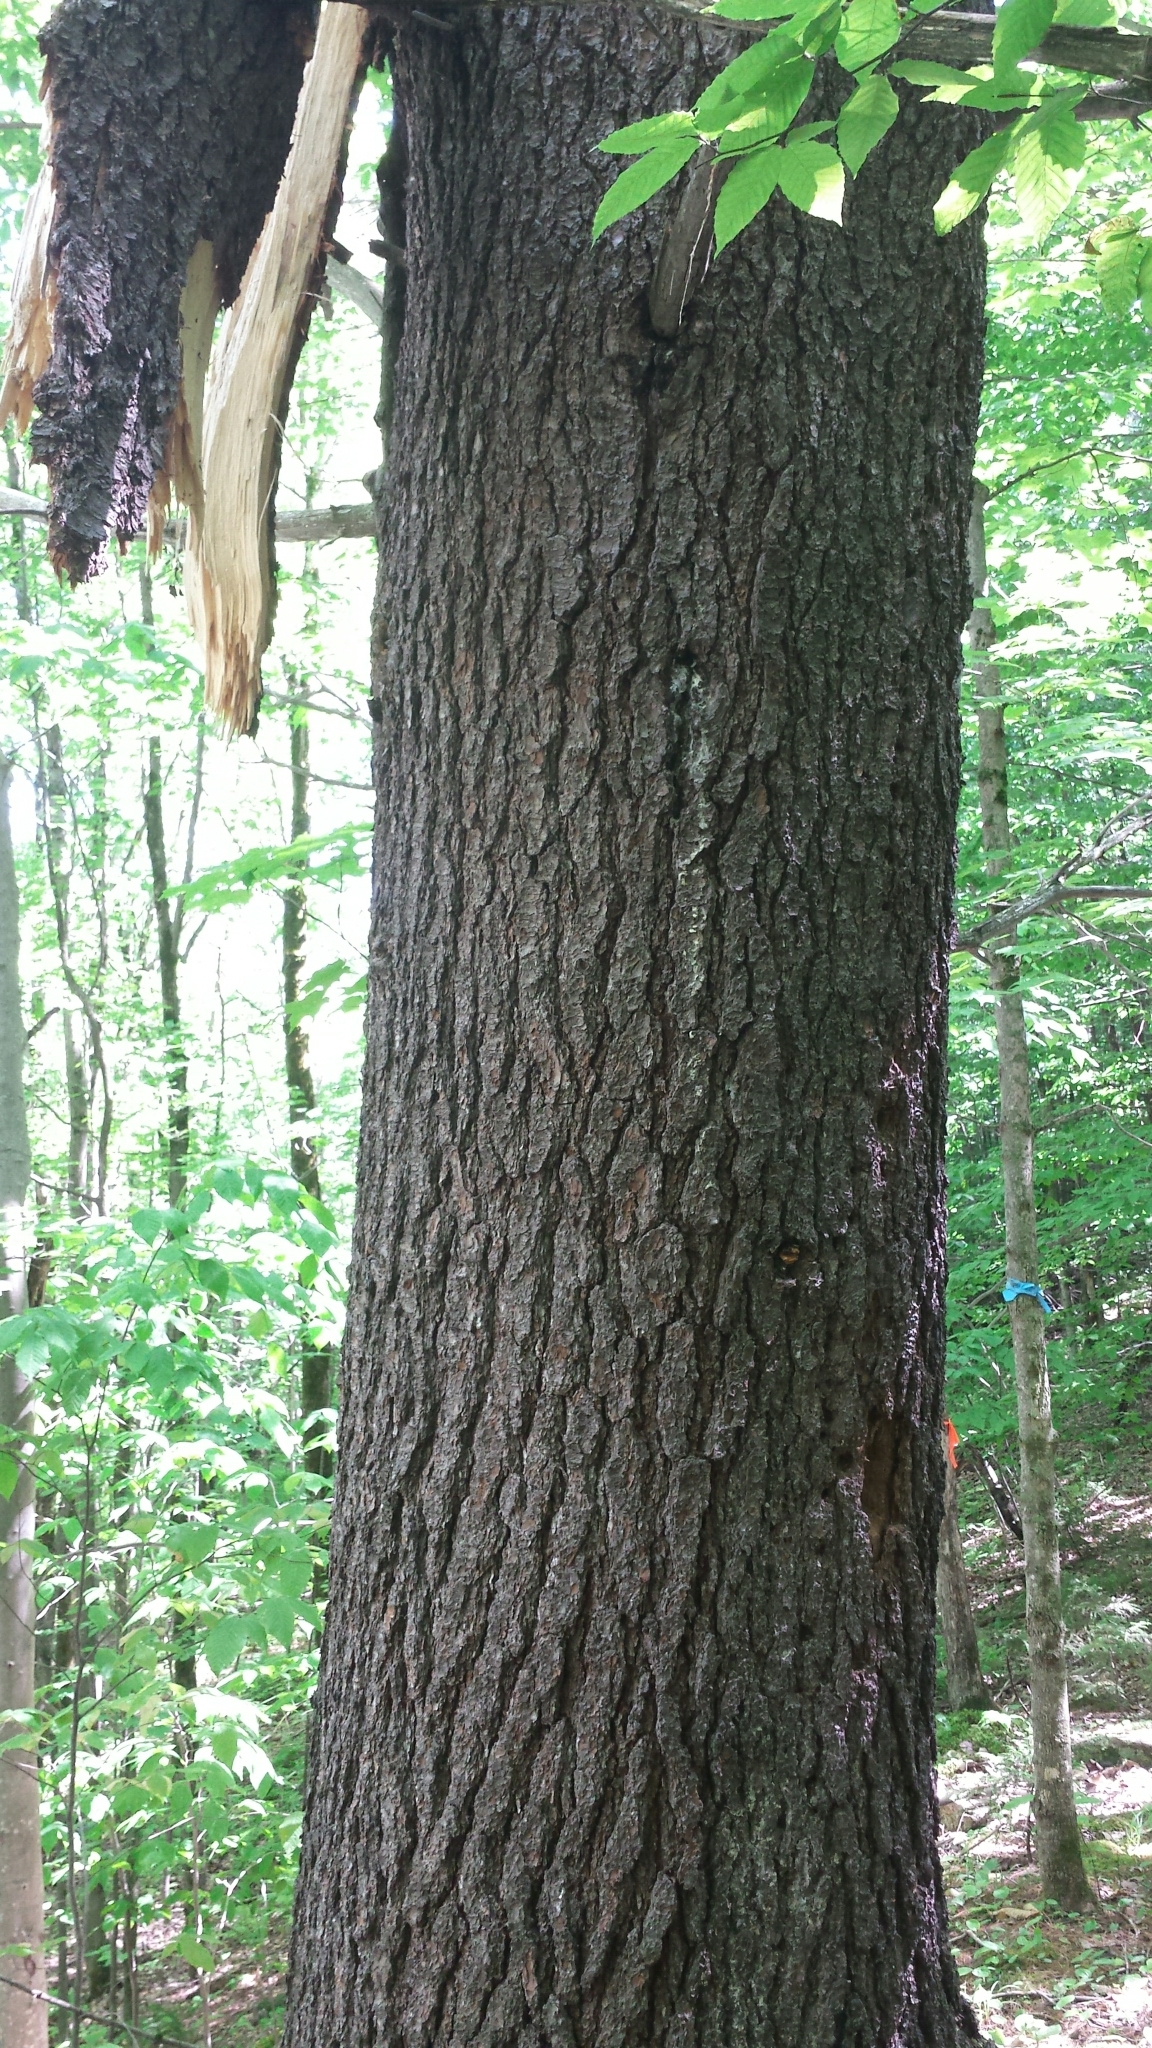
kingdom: Plantae
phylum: Tracheophyta
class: Pinopsida
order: Pinales
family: Pinaceae
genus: Pinus
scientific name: Pinus strobus
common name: Weymouth pine
